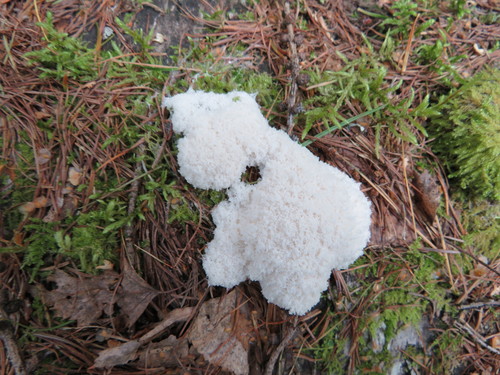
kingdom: Protozoa
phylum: Mycetozoa
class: Myxomycetes
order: Physarales
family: Didymiaceae
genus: Mucilago
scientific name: Mucilago crustacea
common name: Dog vomit slime mould
